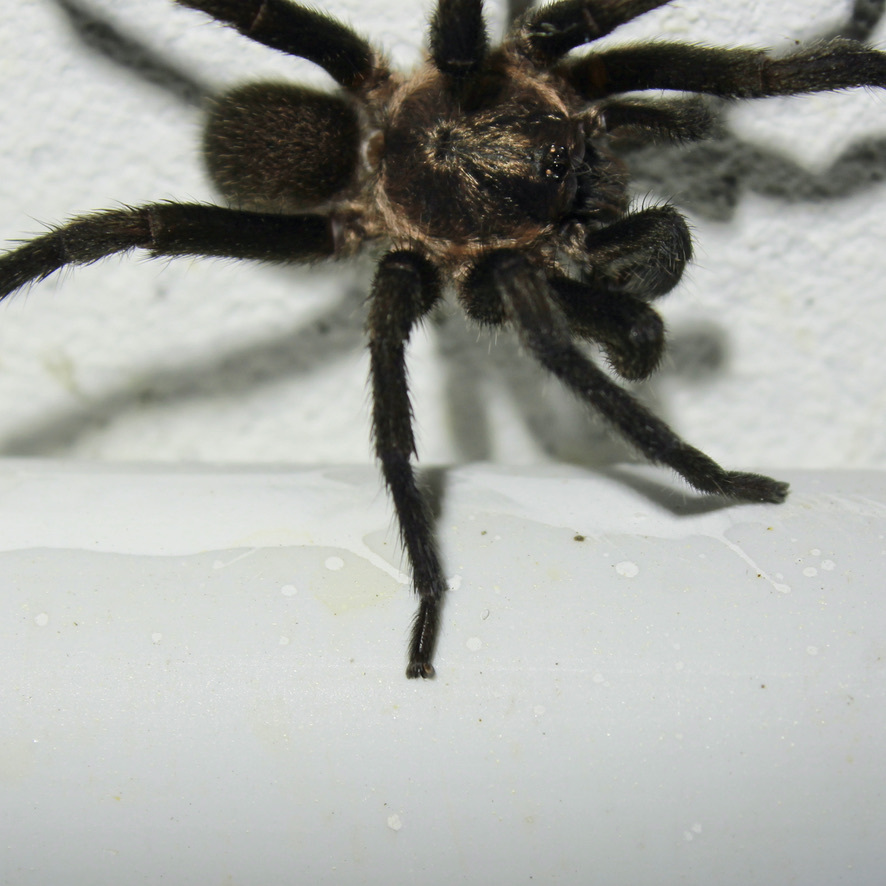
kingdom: Animalia
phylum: Arthropoda
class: Arachnida
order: Araneae
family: Theraphosidae
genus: Neoholothele
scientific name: Neoholothele incei
